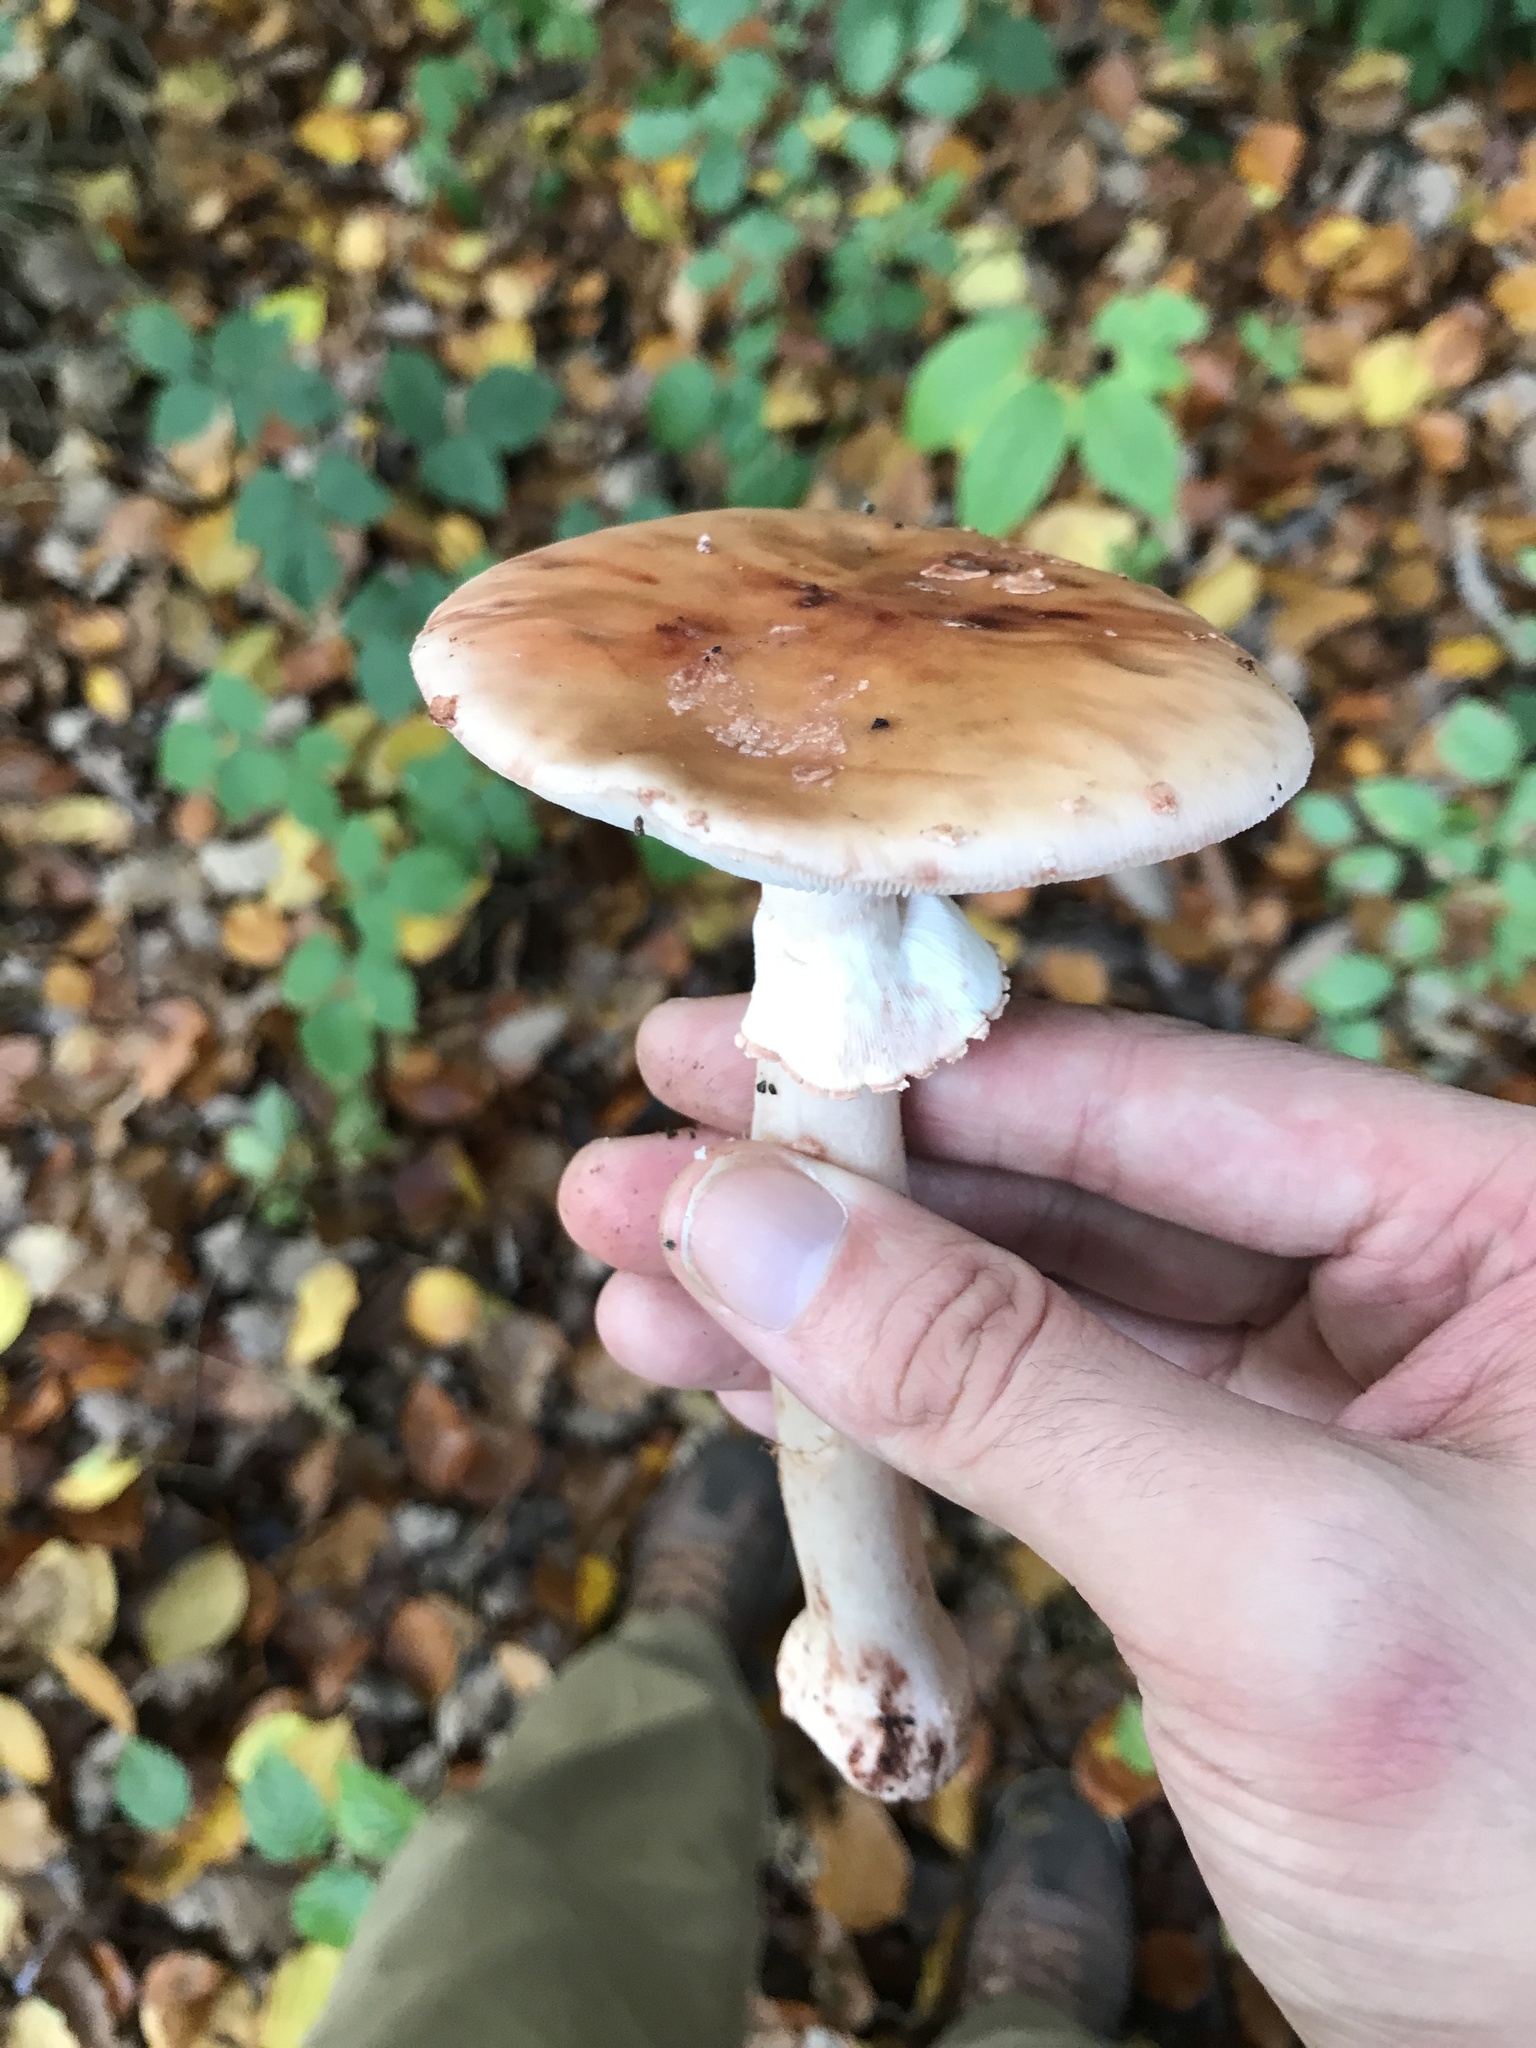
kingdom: Fungi
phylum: Basidiomycota
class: Agaricomycetes
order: Agaricales
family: Amanitaceae
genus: Amanita
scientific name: Amanita rubescens
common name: Blusher
